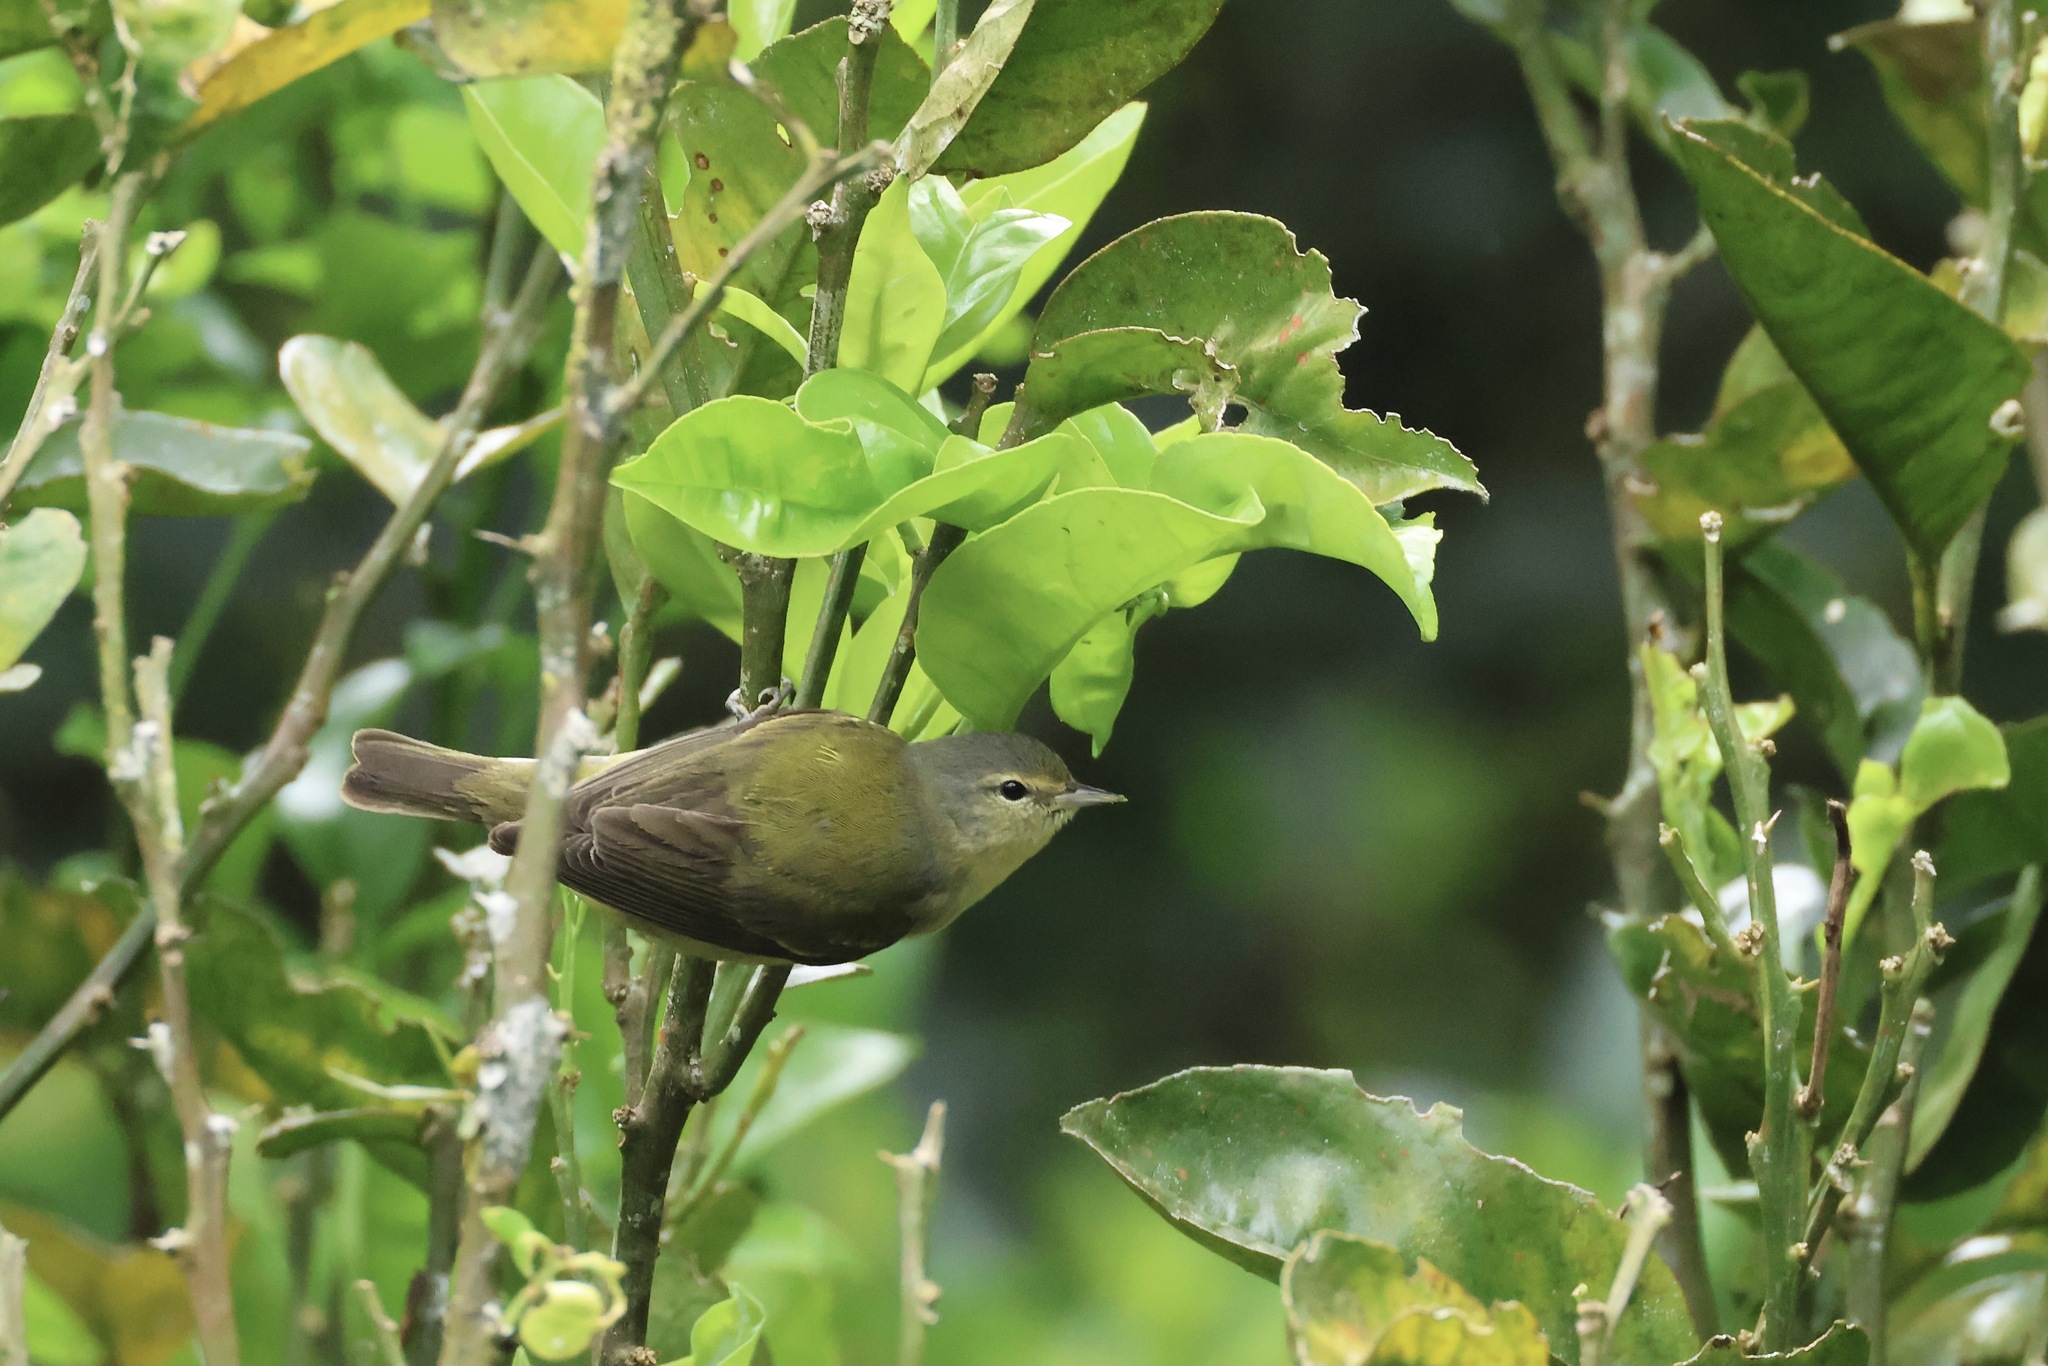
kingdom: Animalia
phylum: Chordata
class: Aves
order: Passeriformes
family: Parulidae
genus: Leiothlypis
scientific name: Leiothlypis peregrina
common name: Tennessee warbler
